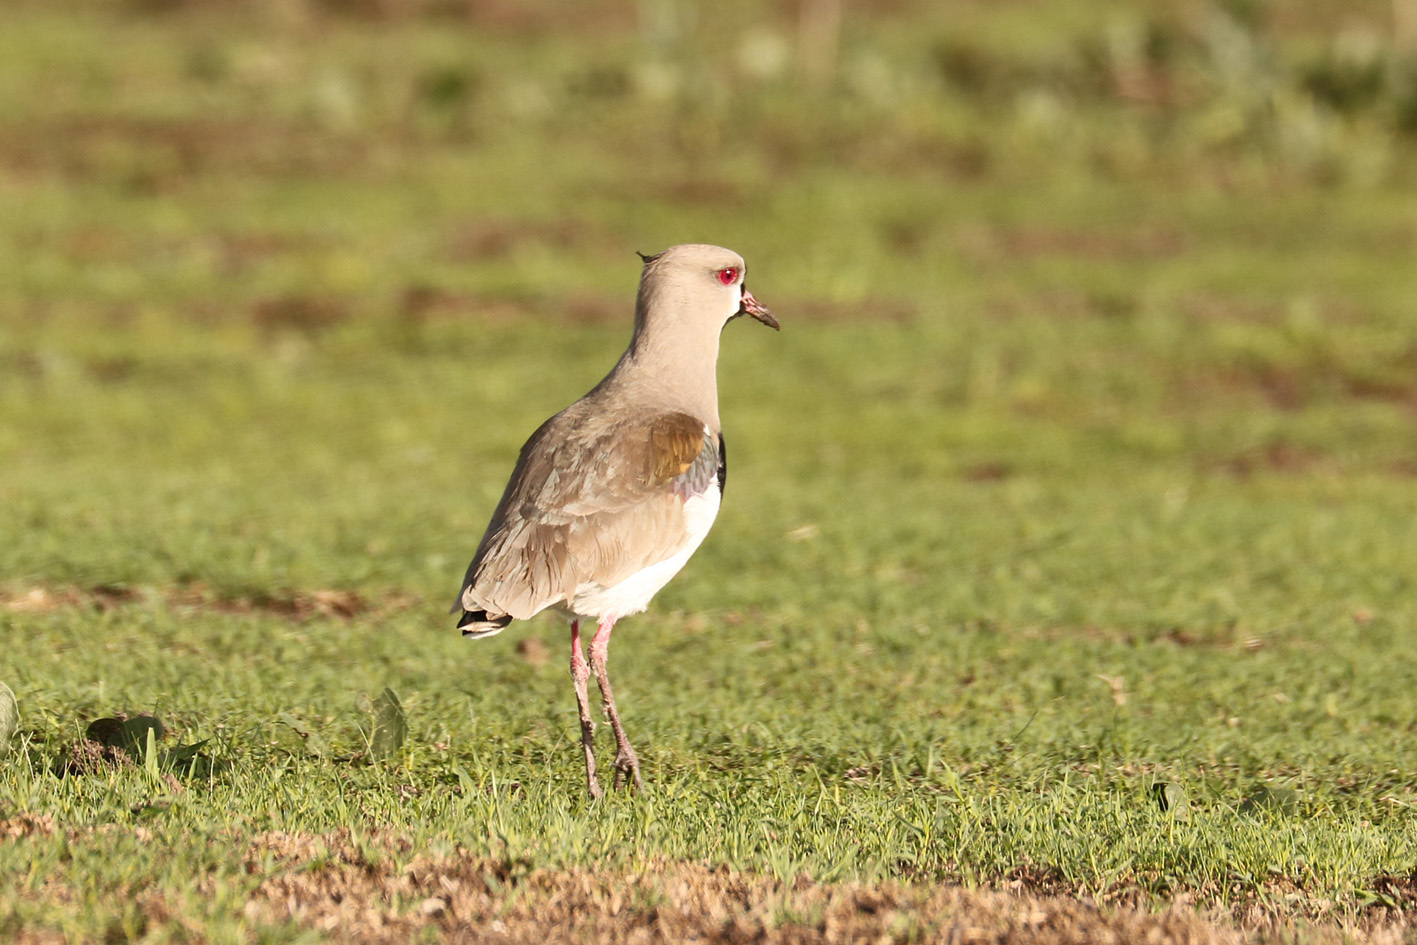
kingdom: Animalia
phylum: Chordata
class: Aves
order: Charadriiformes
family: Charadriidae
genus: Vanellus
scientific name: Vanellus chilensis
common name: Southern lapwing
